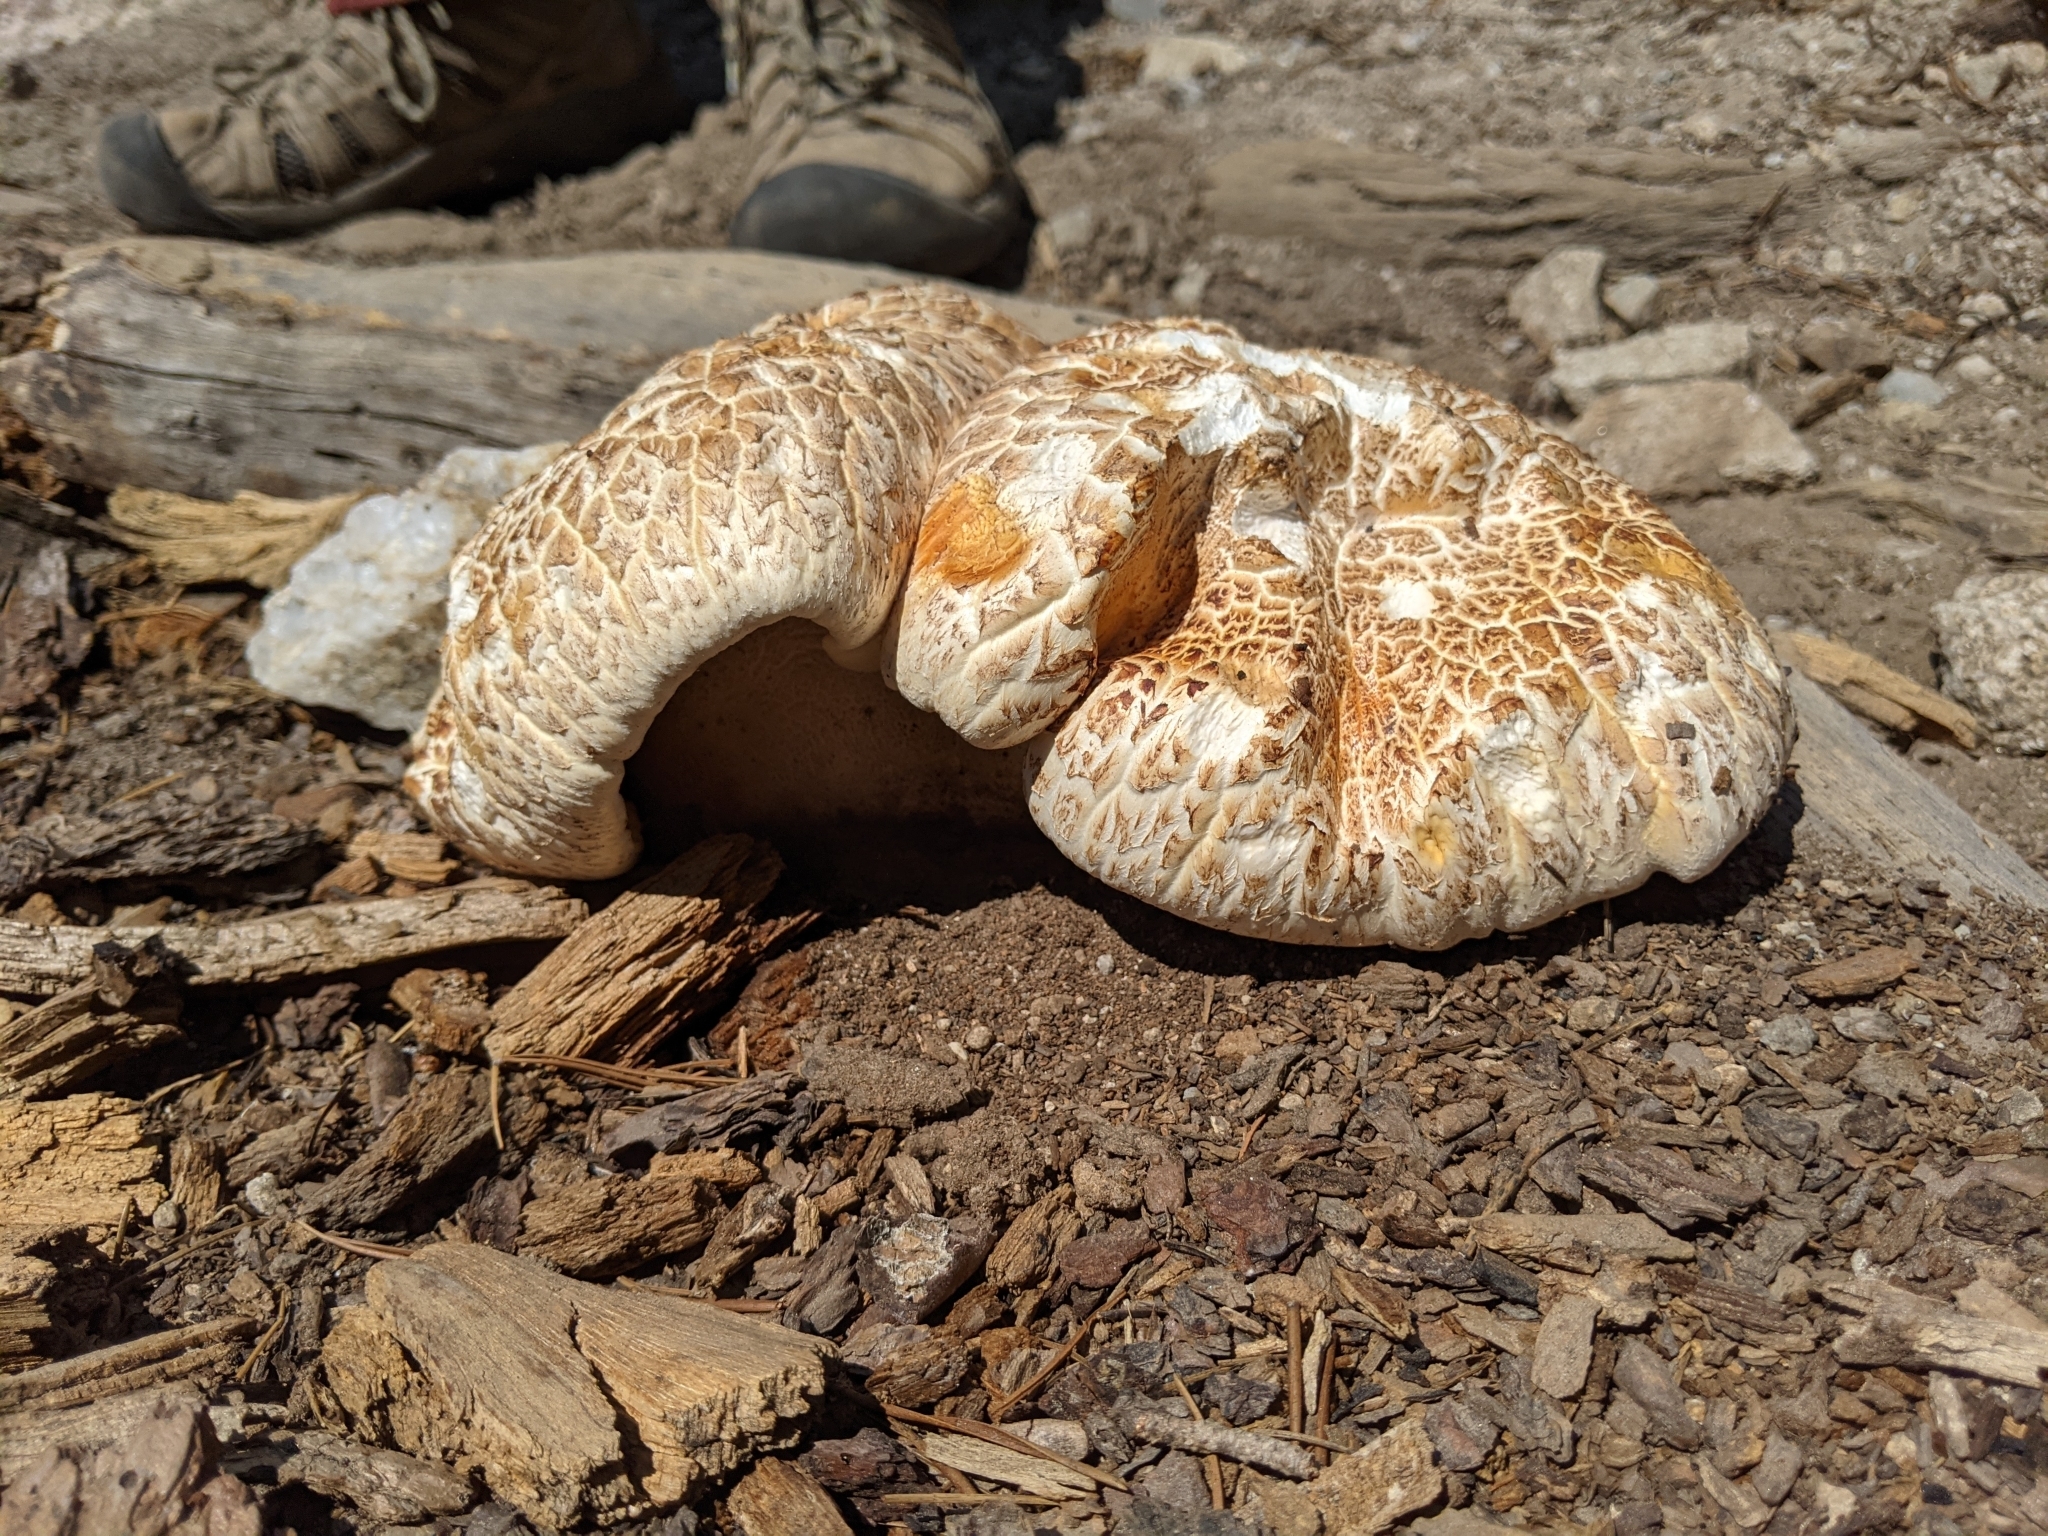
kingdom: Fungi
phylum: Basidiomycota
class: Agaricomycetes
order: Gloeophyllales
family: Gloeophyllaceae
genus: Neolentinus
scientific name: Neolentinus ponderosus
